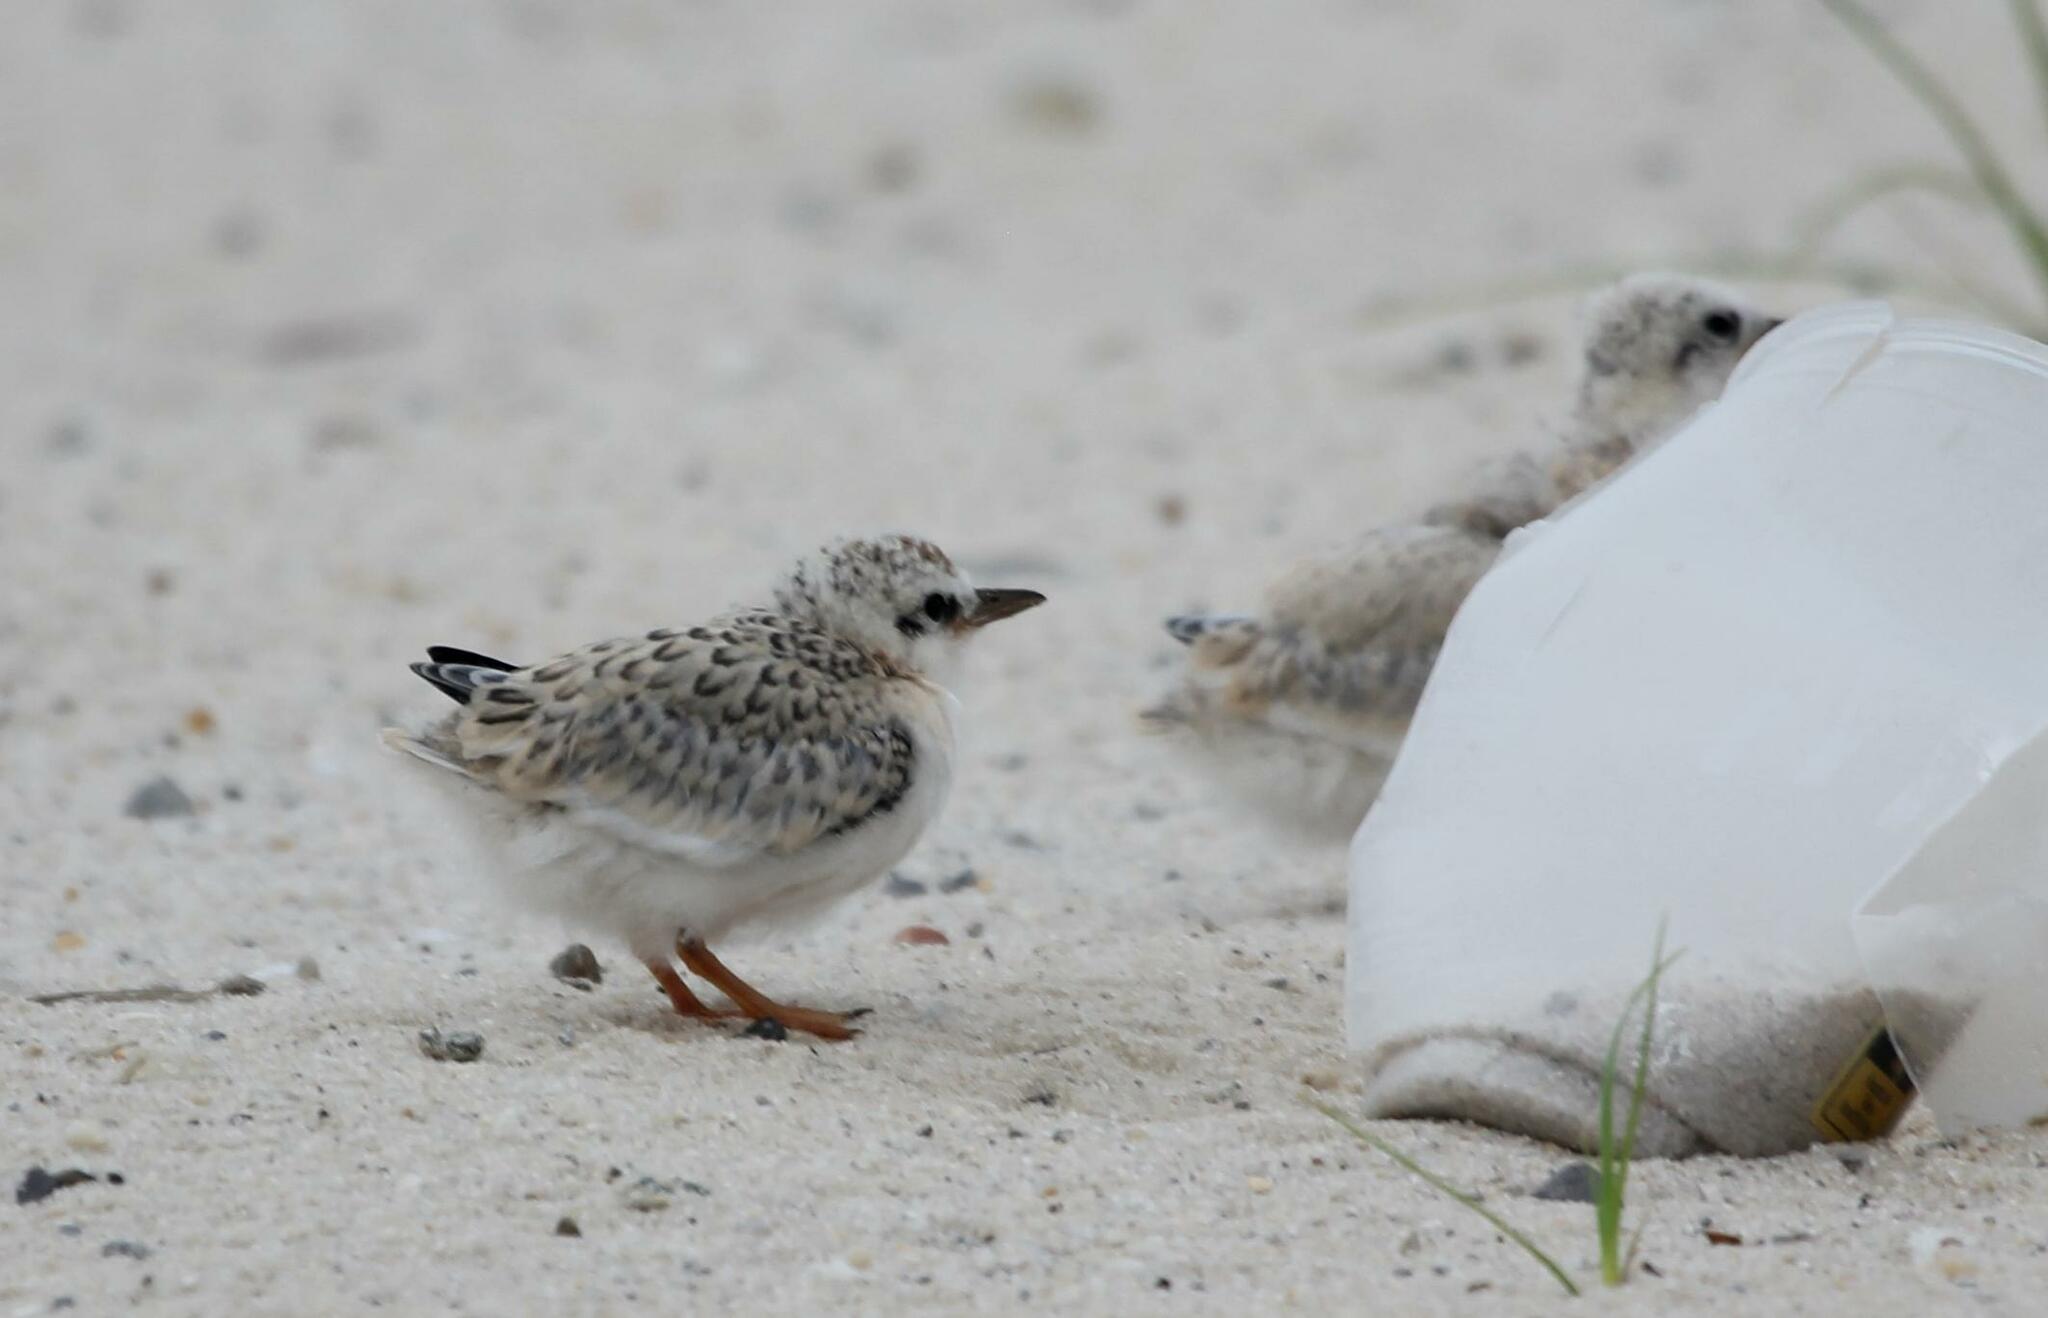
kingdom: Animalia
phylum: Chordata
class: Aves
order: Charadriiformes
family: Laridae
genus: Sternula
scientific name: Sternula antillarum
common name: Least tern
